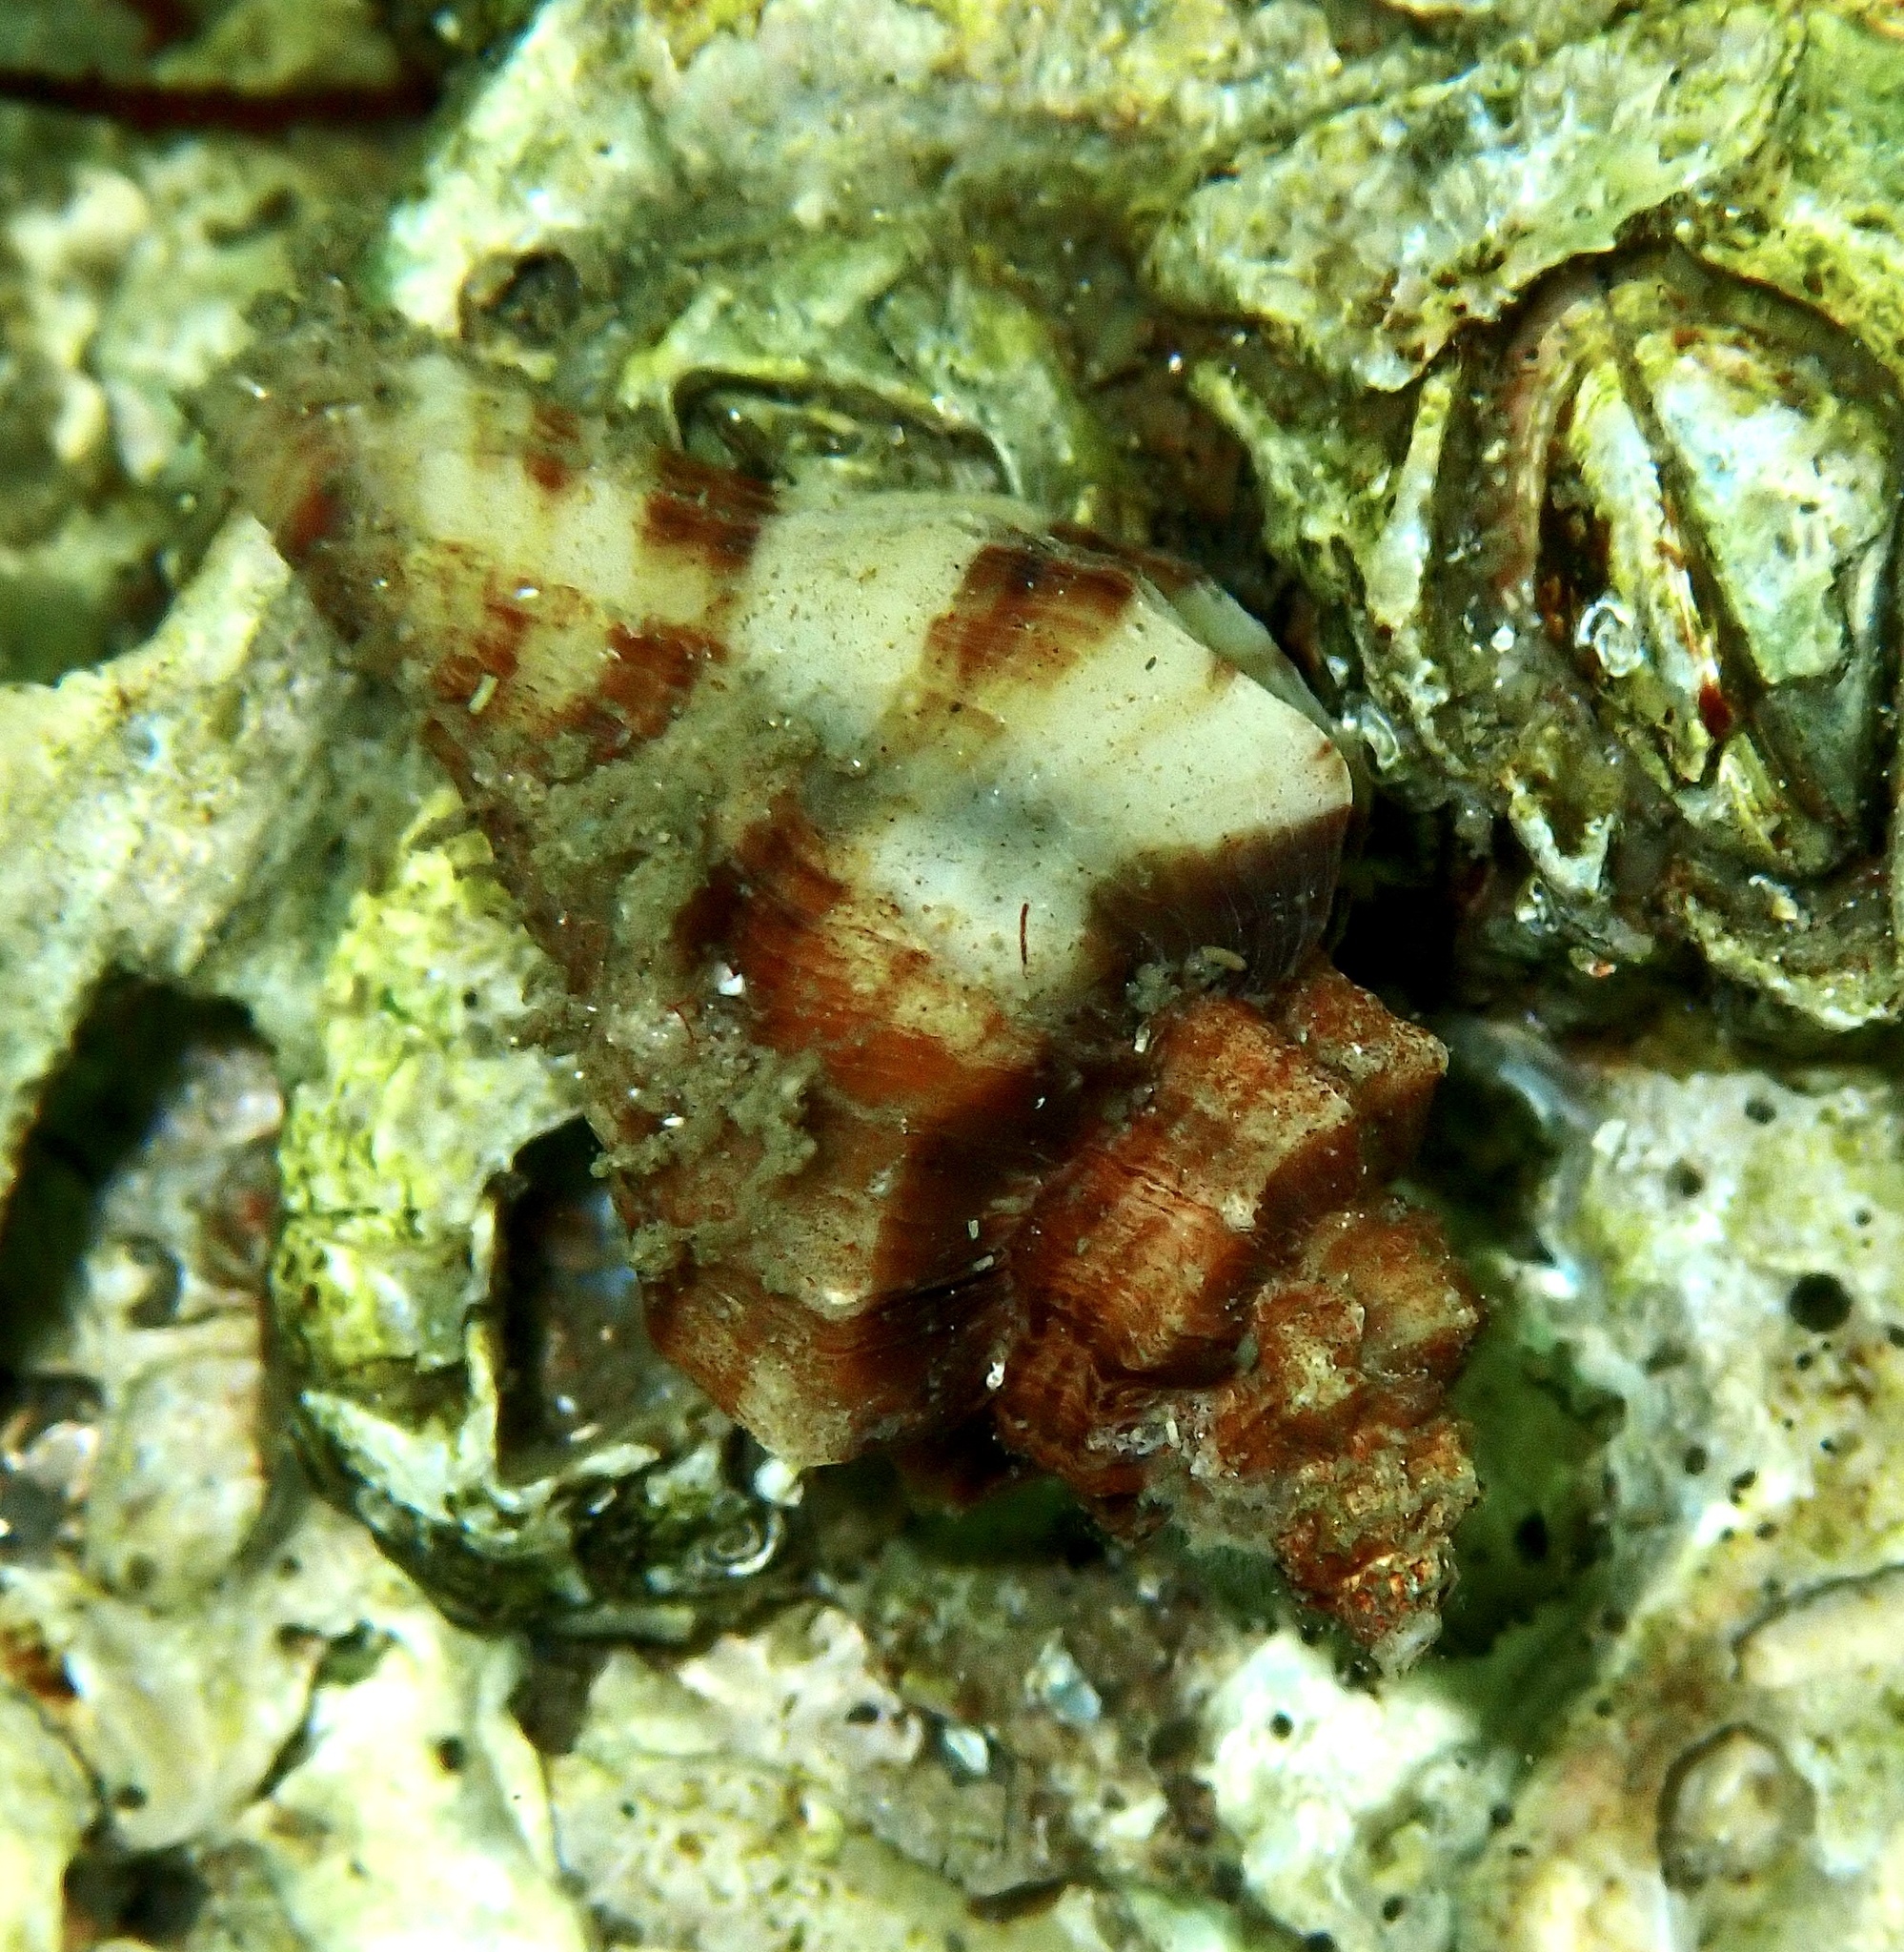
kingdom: Animalia
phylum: Mollusca
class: Gastropoda
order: Neogastropoda
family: Muricidae
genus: Ocinebrellus
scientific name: Ocinebrellus inornatus
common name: Asian drill snail
